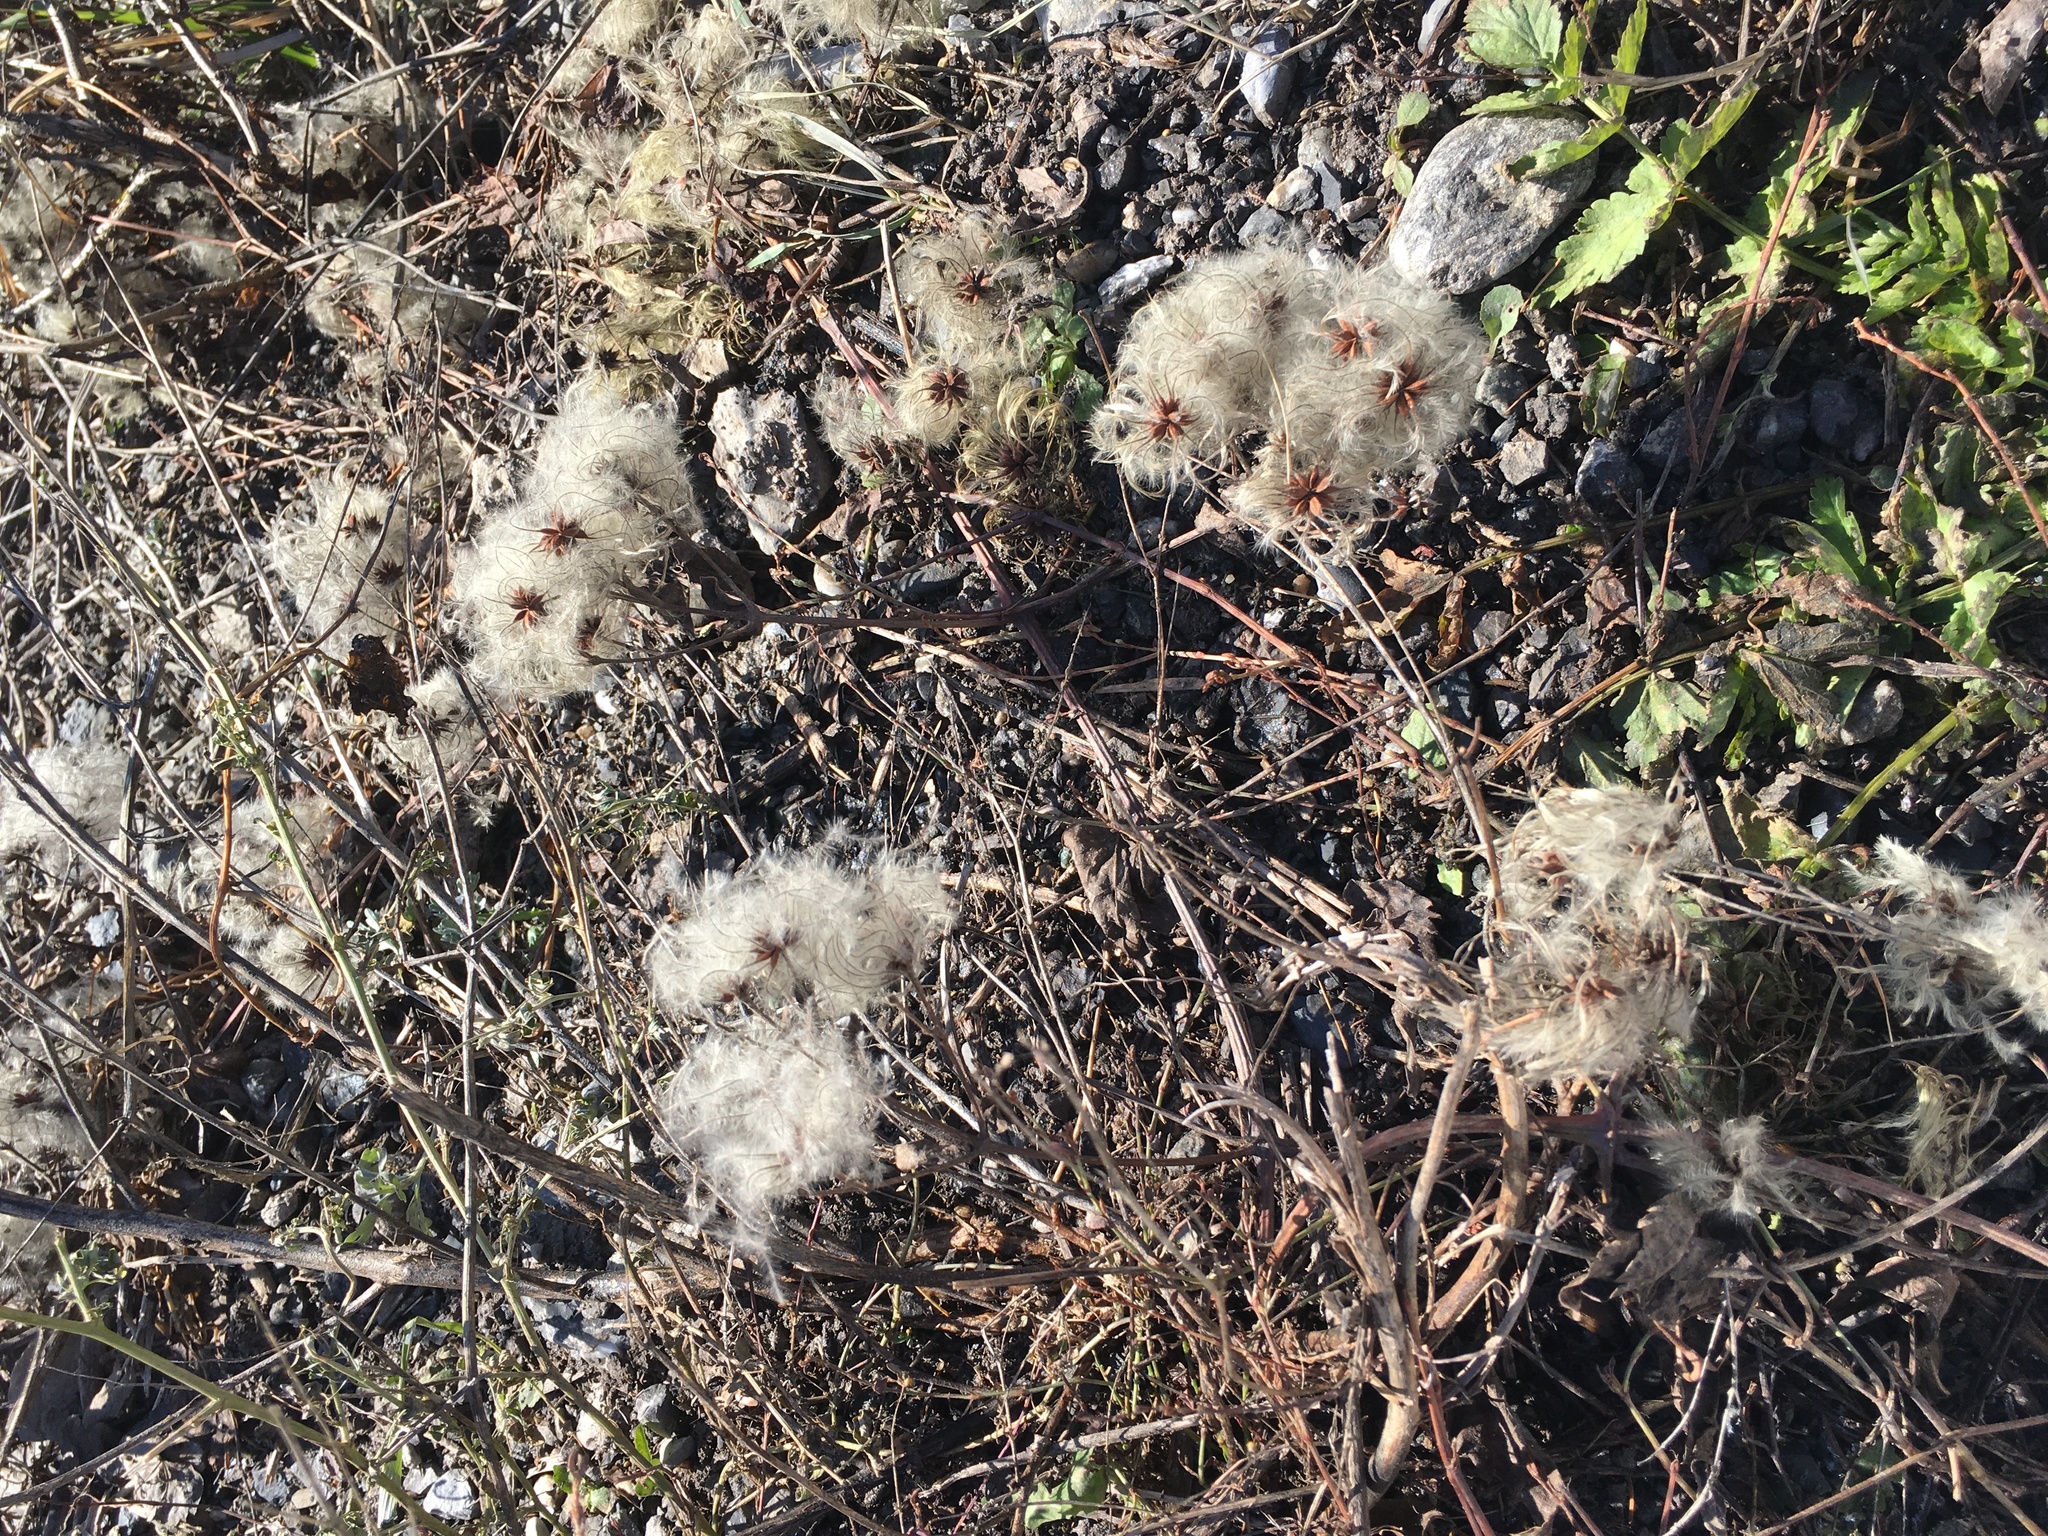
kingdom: Plantae
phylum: Tracheophyta
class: Magnoliopsida
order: Ranunculales
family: Ranunculaceae
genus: Clematis
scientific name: Clematis vitalba
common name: Evergreen clematis
